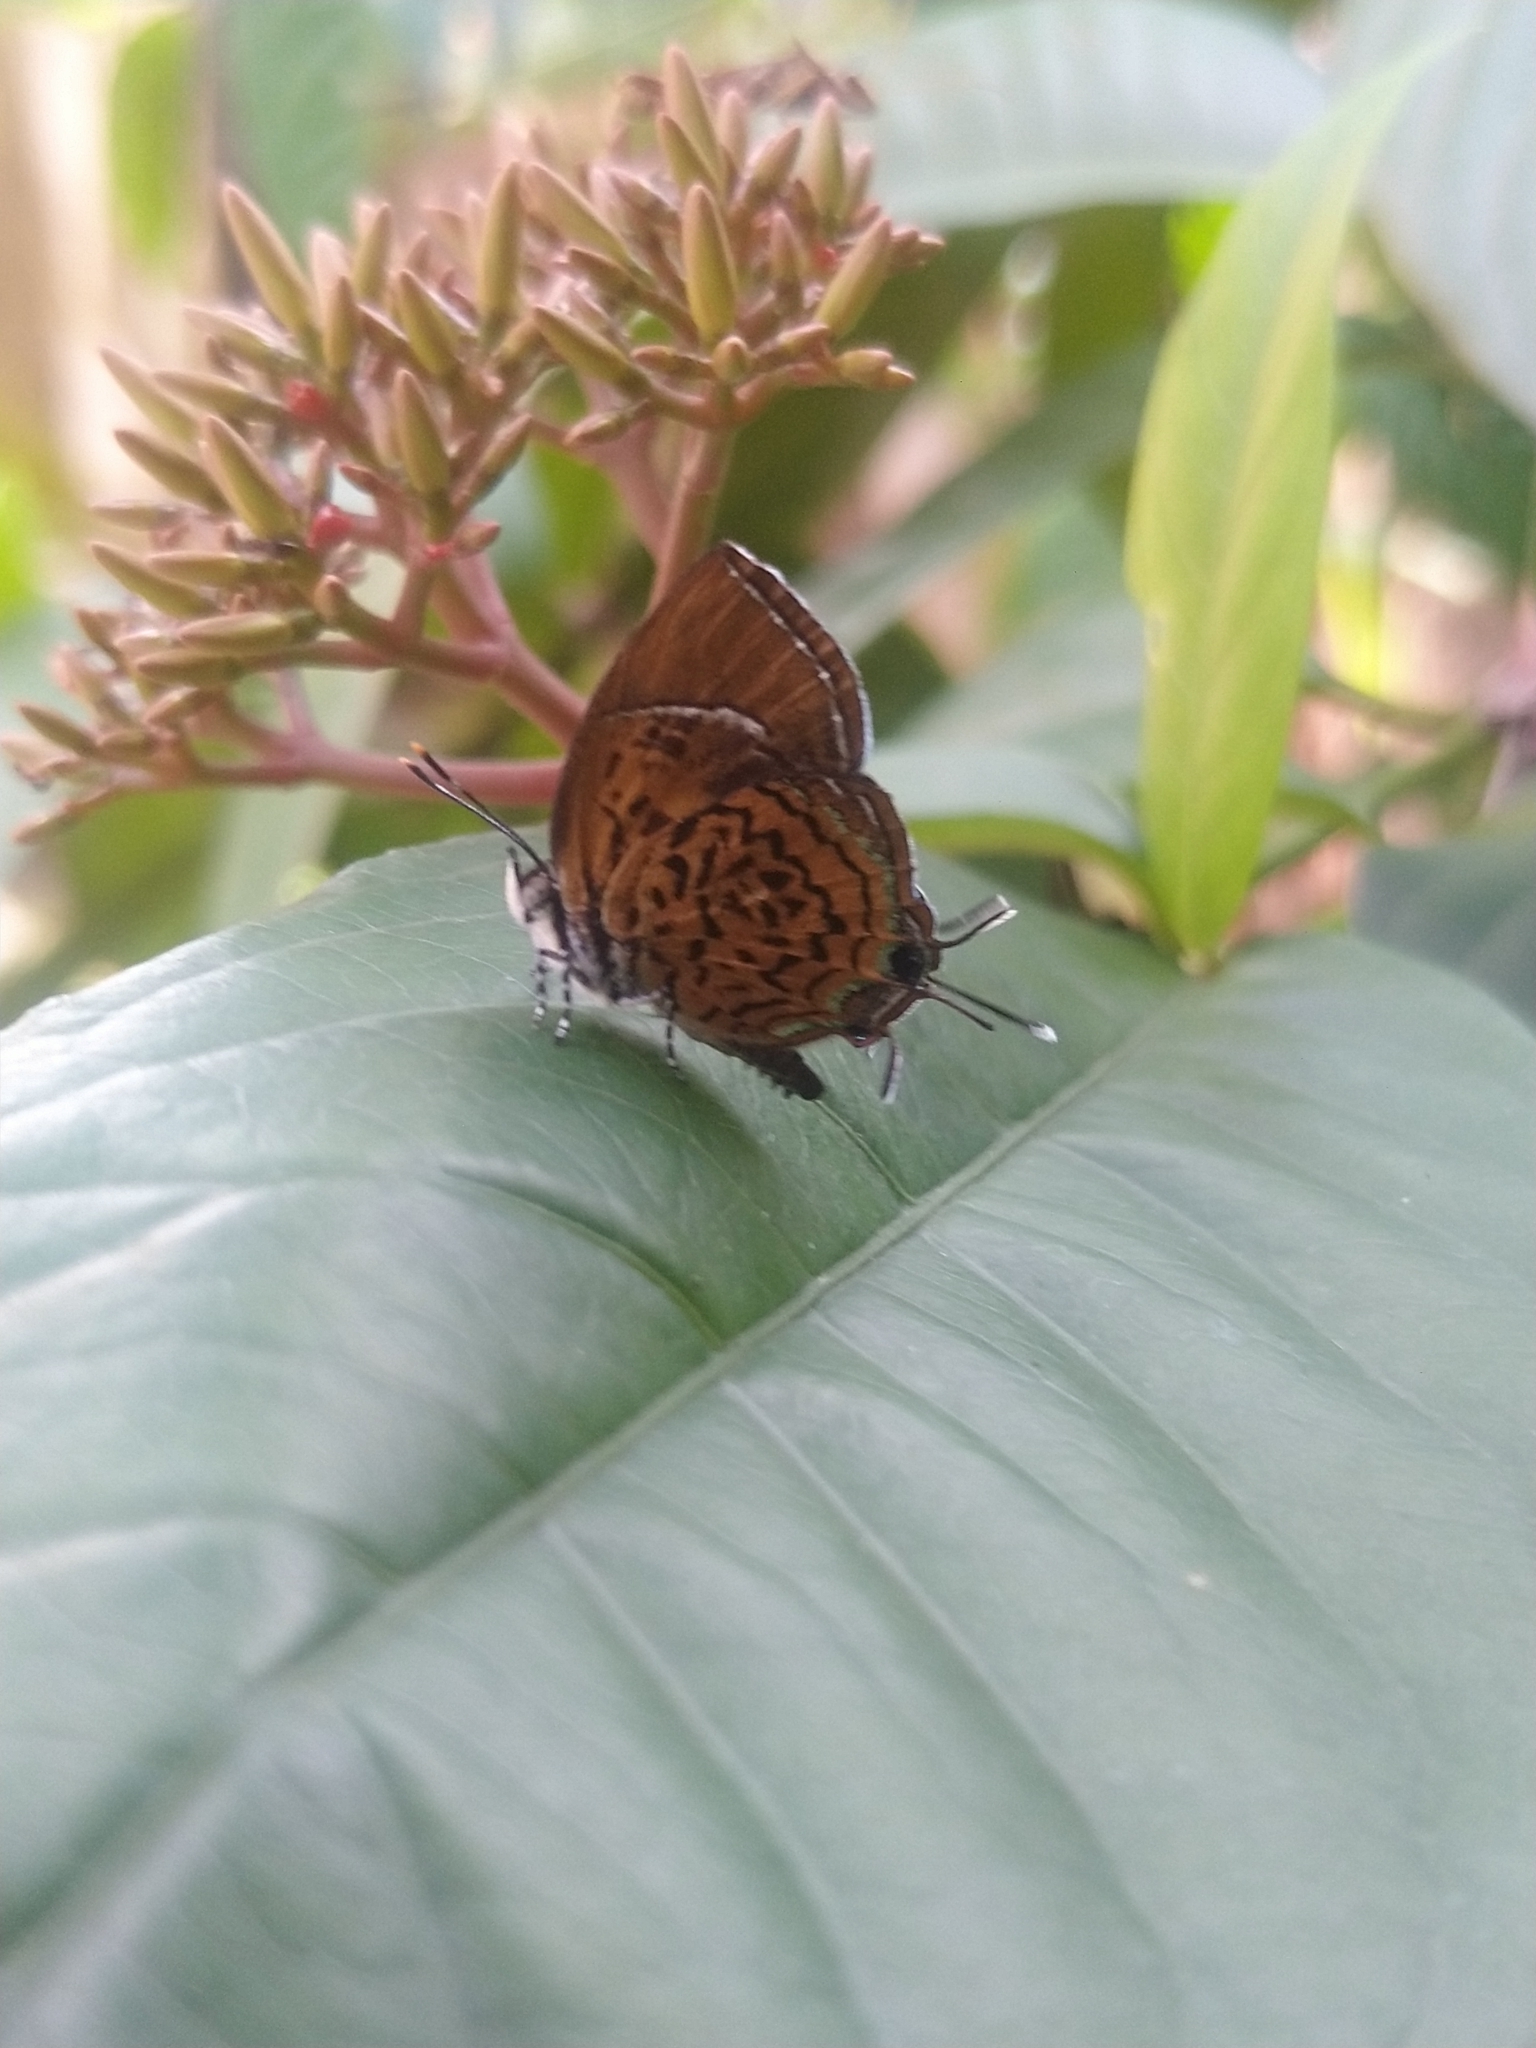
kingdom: Animalia
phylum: Arthropoda
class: Insecta
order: Lepidoptera
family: Lycaenidae
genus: Rathinda
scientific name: Rathinda amor
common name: Monkey puzzle
